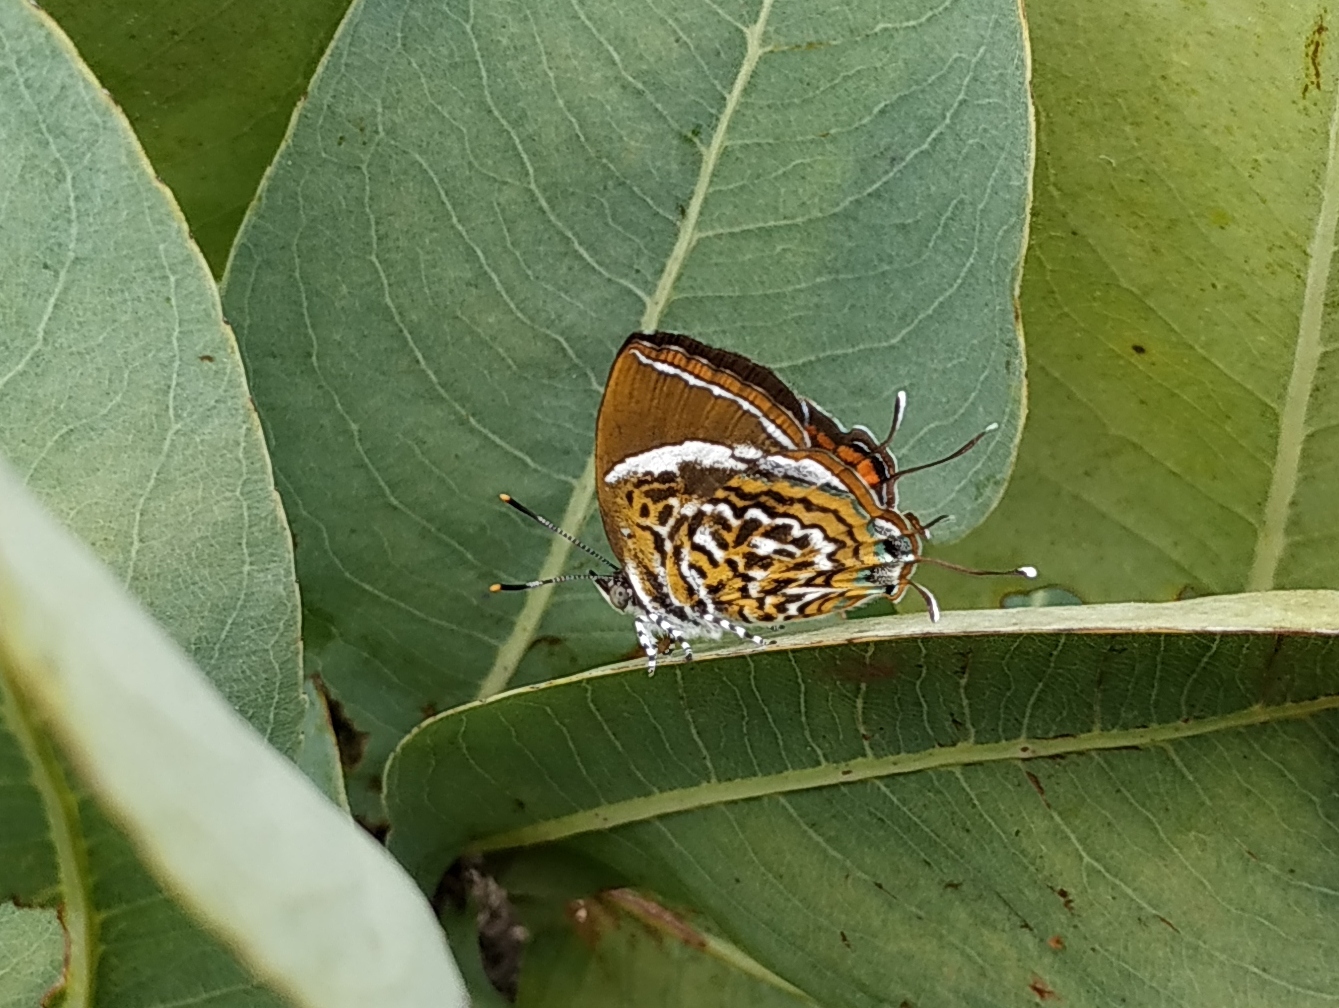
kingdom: Animalia
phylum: Arthropoda
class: Insecta
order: Lepidoptera
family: Lycaenidae
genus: Rathinda
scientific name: Rathinda amor
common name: Monkey puzzle
